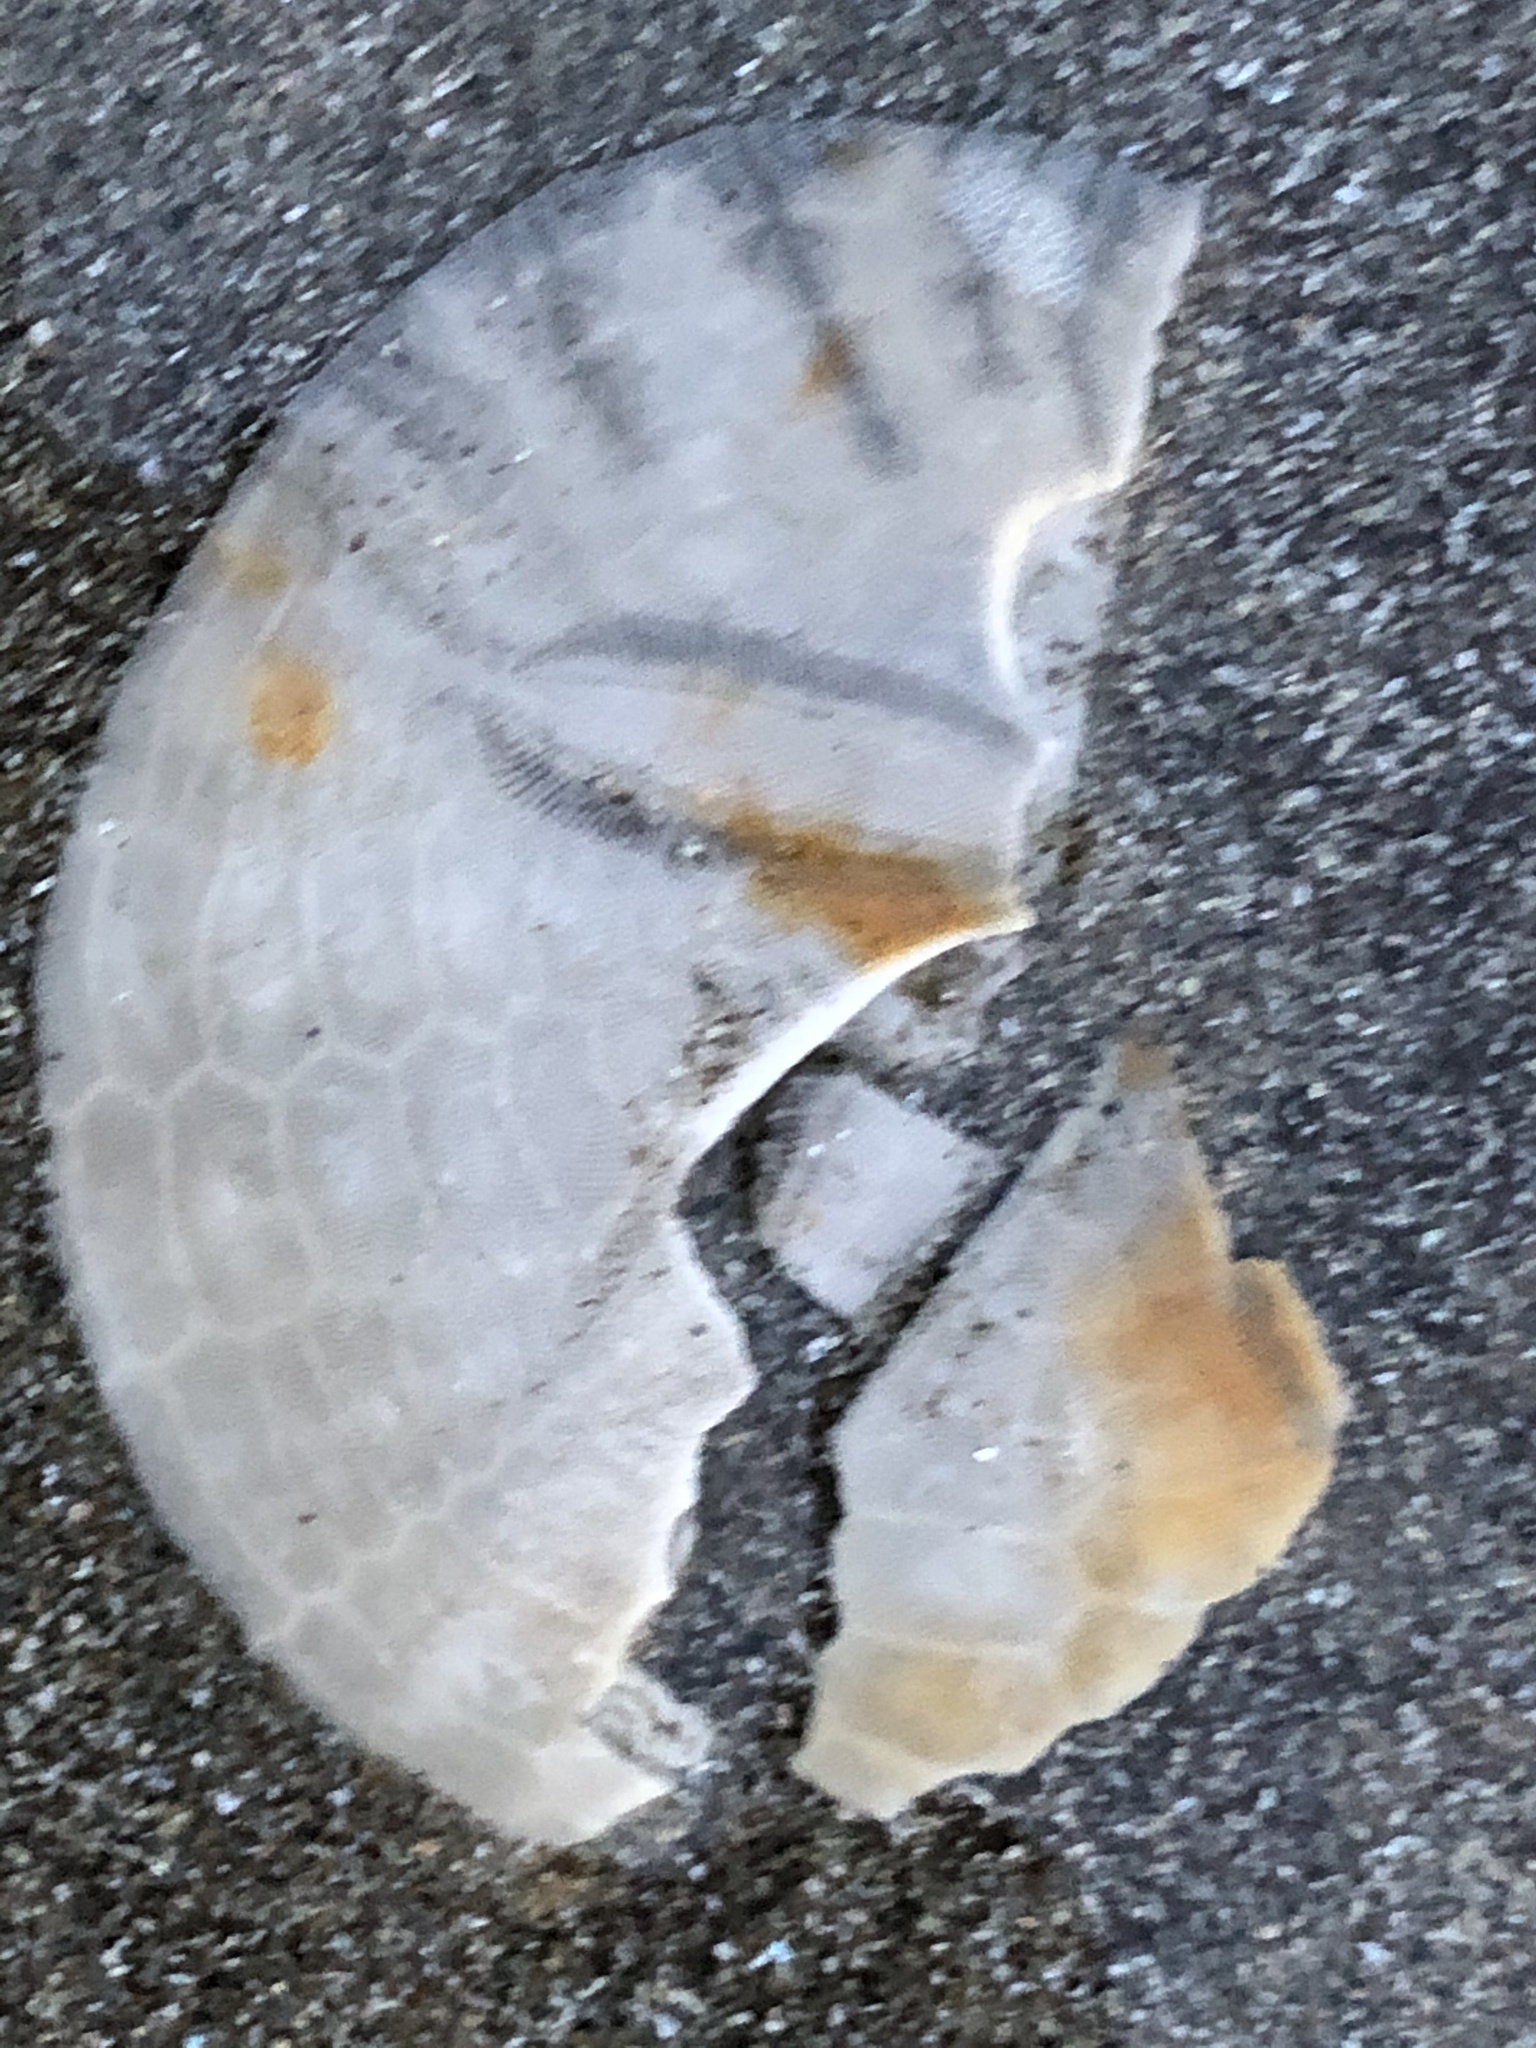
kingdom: Animalia
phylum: Echinodermata
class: Echinoidea
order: Echinolampadacea
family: Dendrasteridae
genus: Dendraster
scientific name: Dendraster excentricus
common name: Eccentric sand dollar sea urchin
